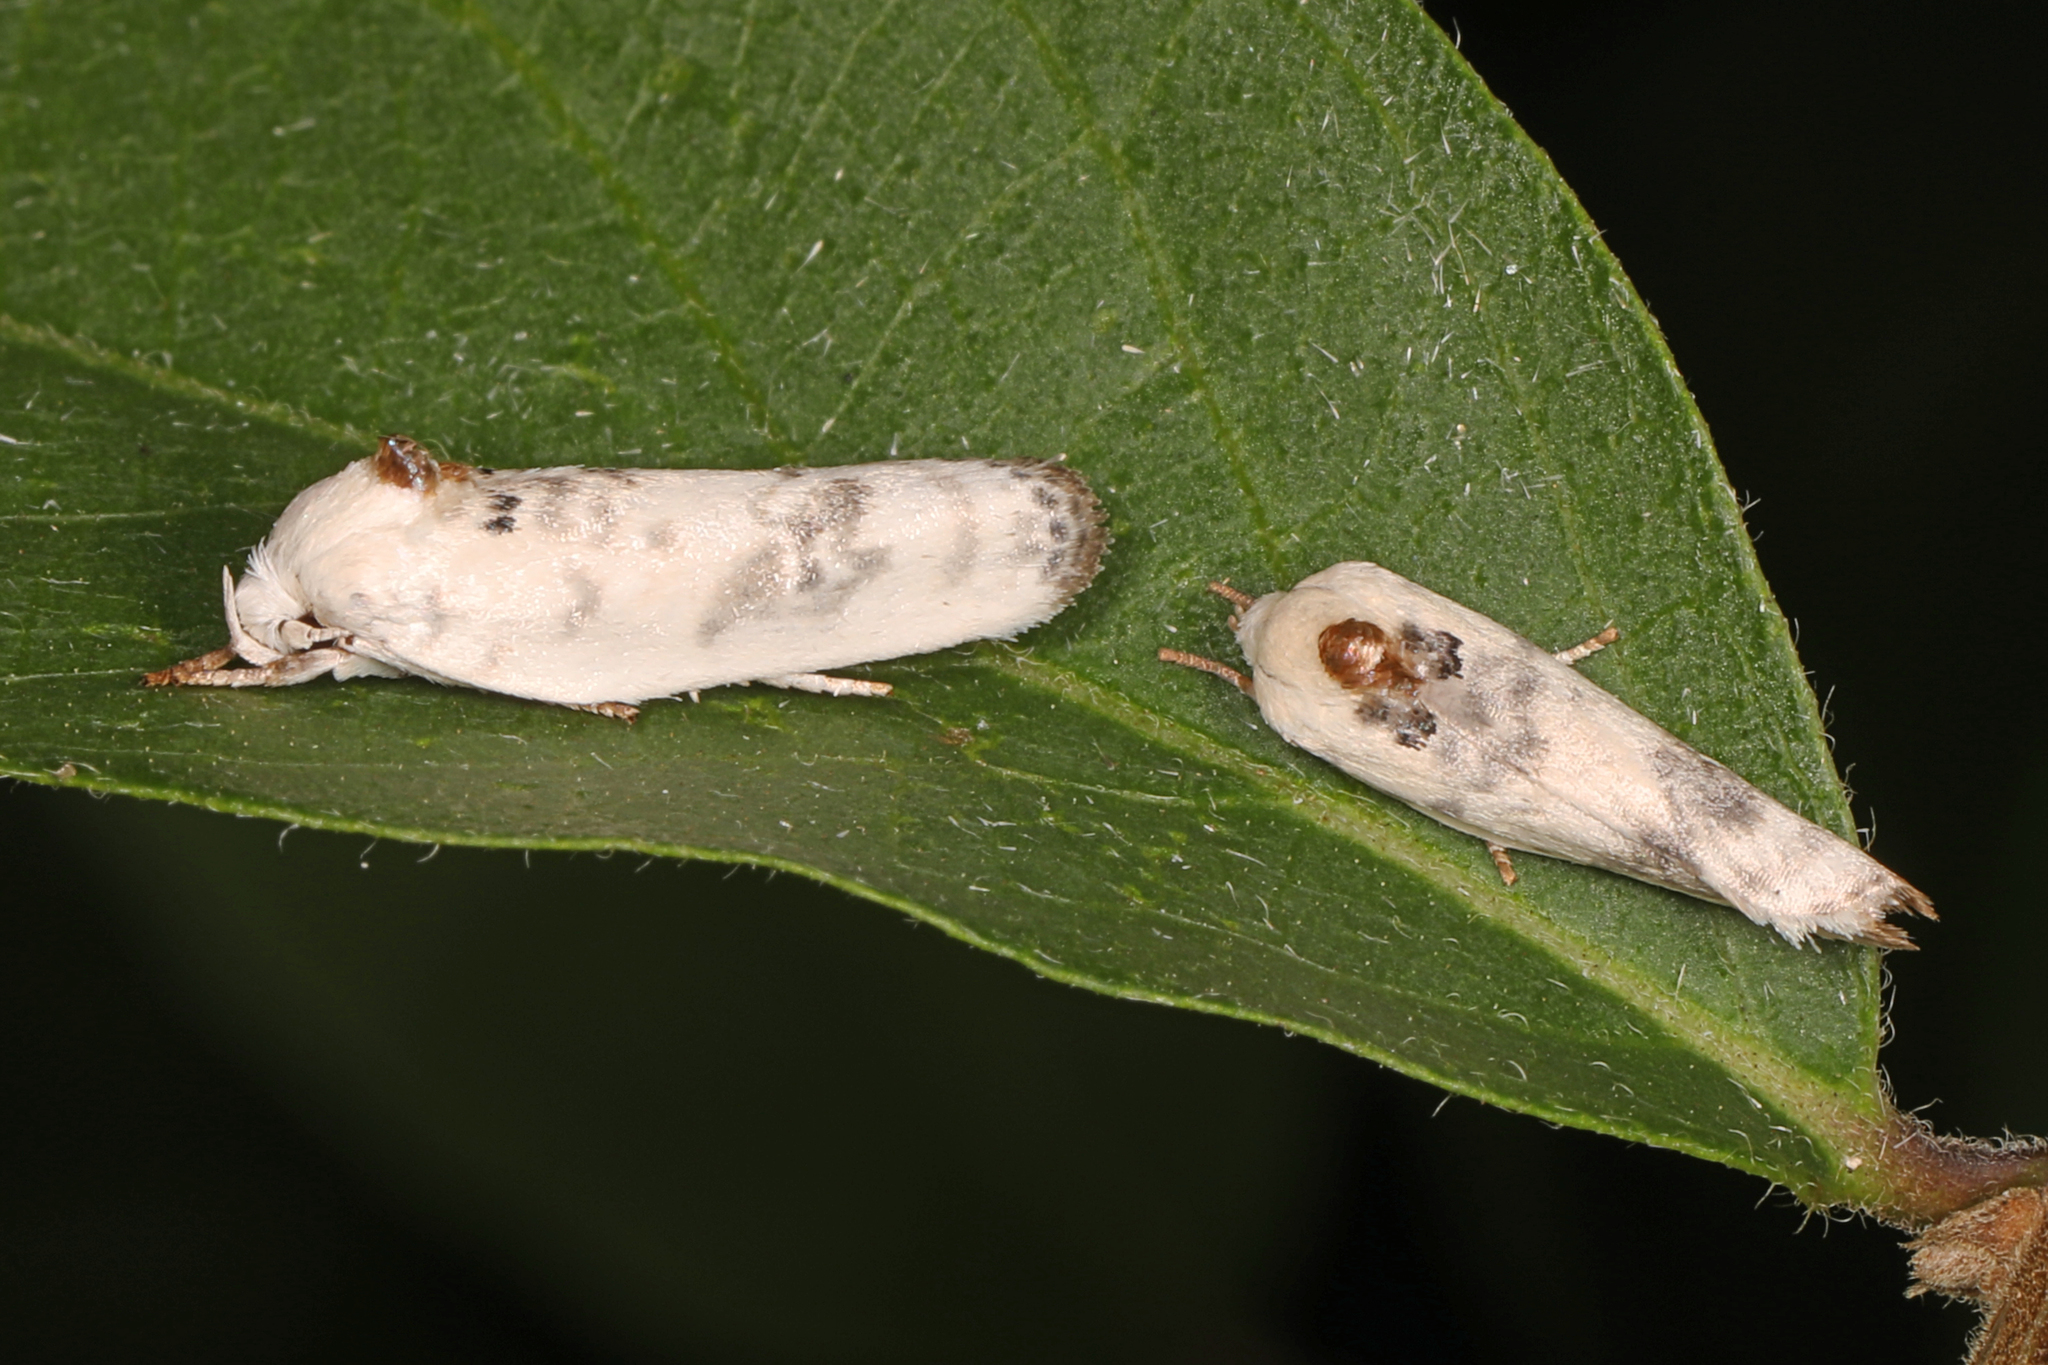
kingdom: Animalia
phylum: Arthropoda
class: Insecta
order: Lepidoptera
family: Depressariidae
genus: Antaeotricha
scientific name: Antaeotricha leucillana
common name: Pale gray bird-dropping moth
